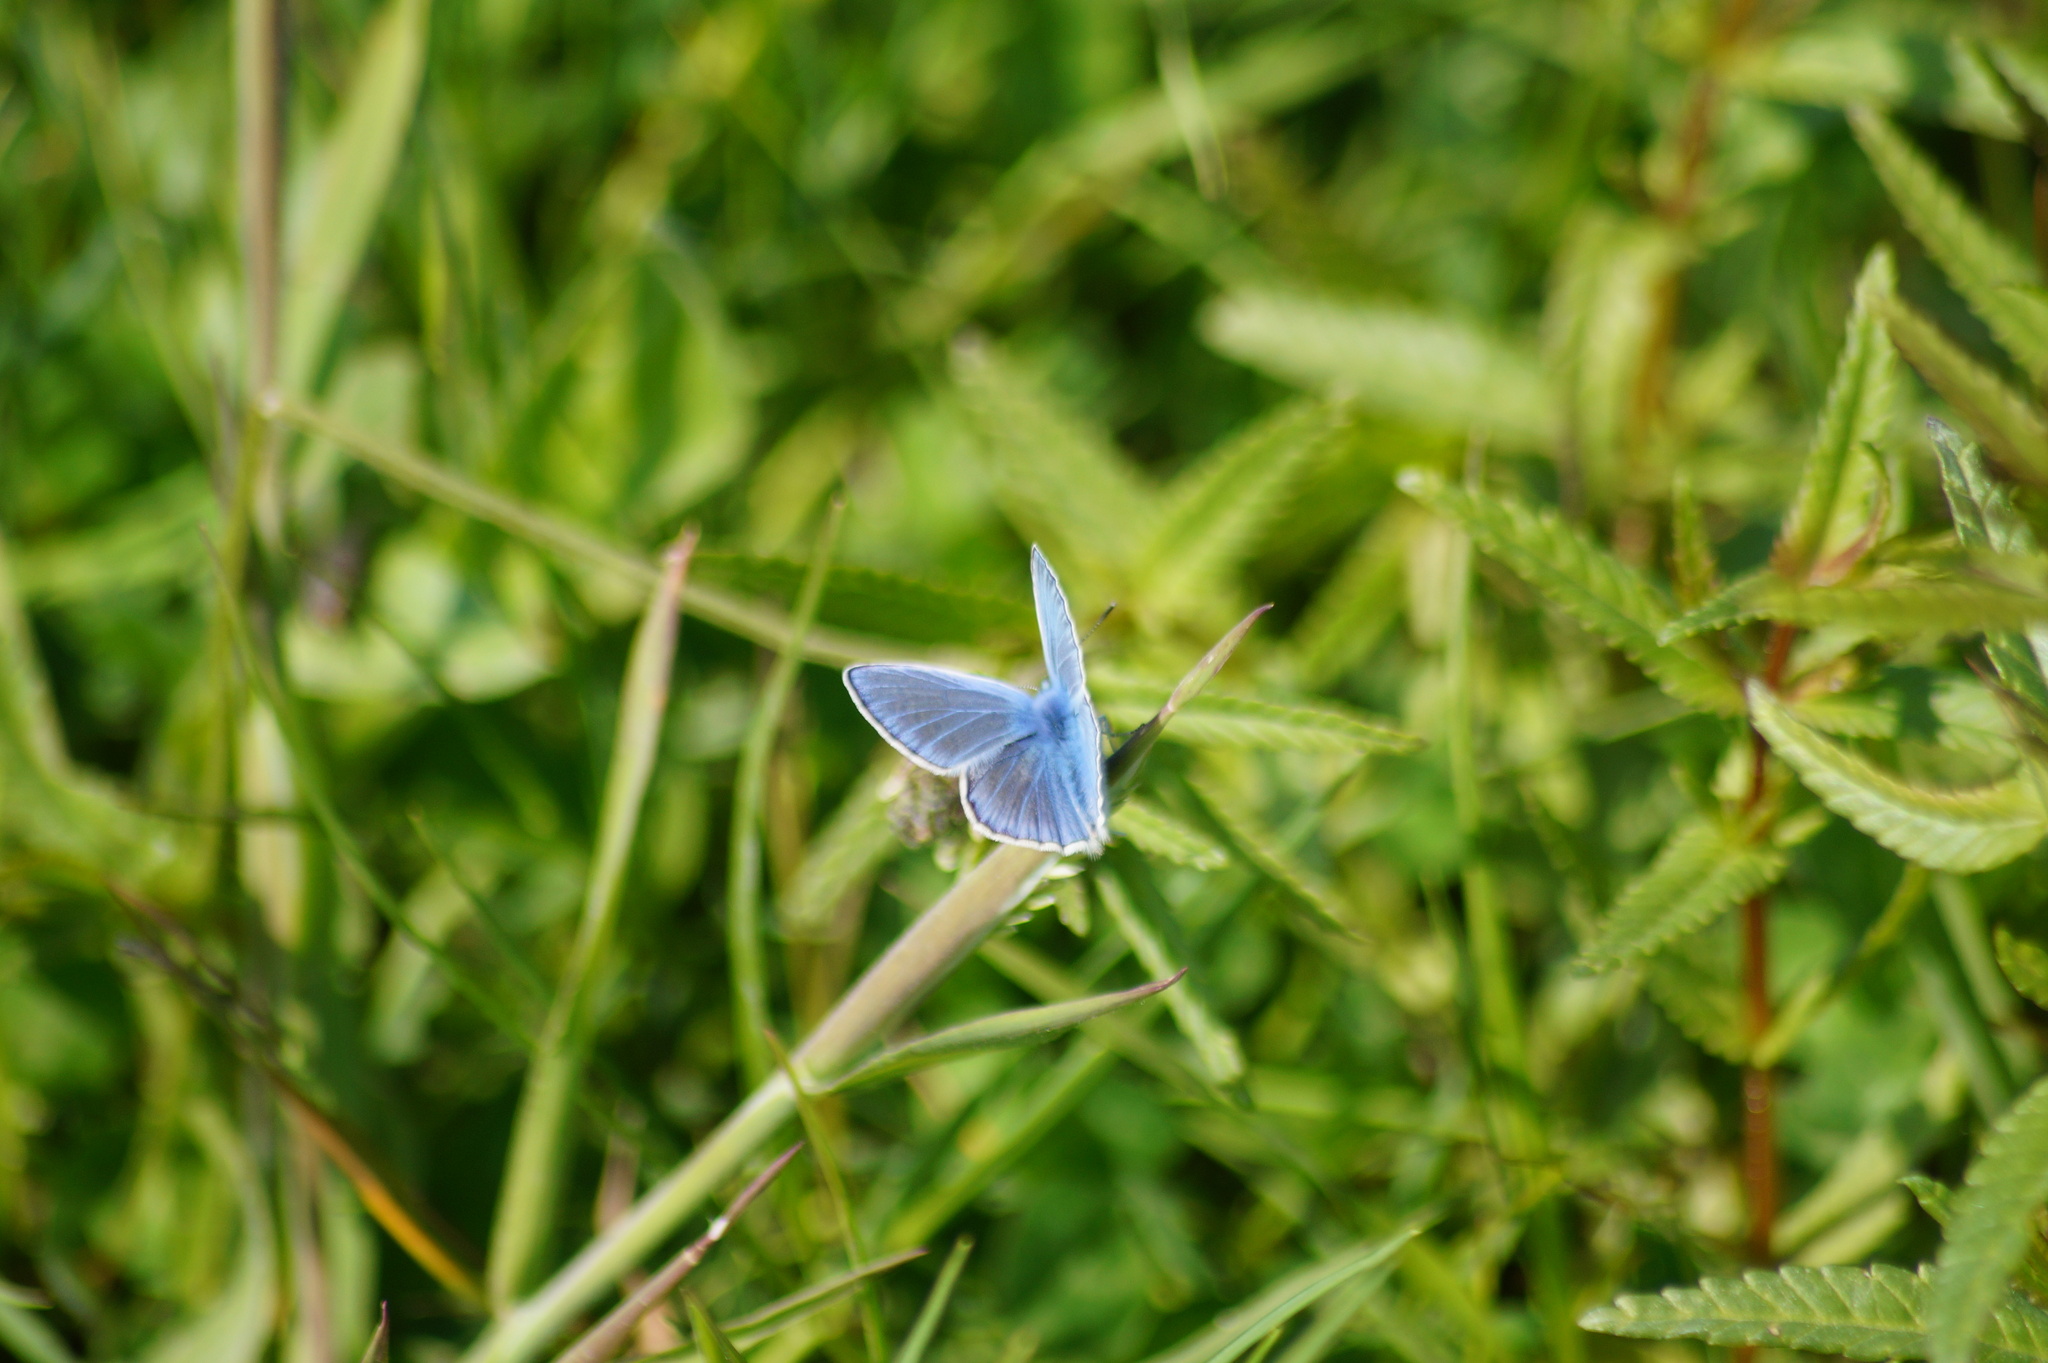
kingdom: Animalia
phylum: Arthropoda
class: Insecta
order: Lepidoptera
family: Lycaenidae
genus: Polyommatus
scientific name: Polyommatus icarus
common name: Common blue
